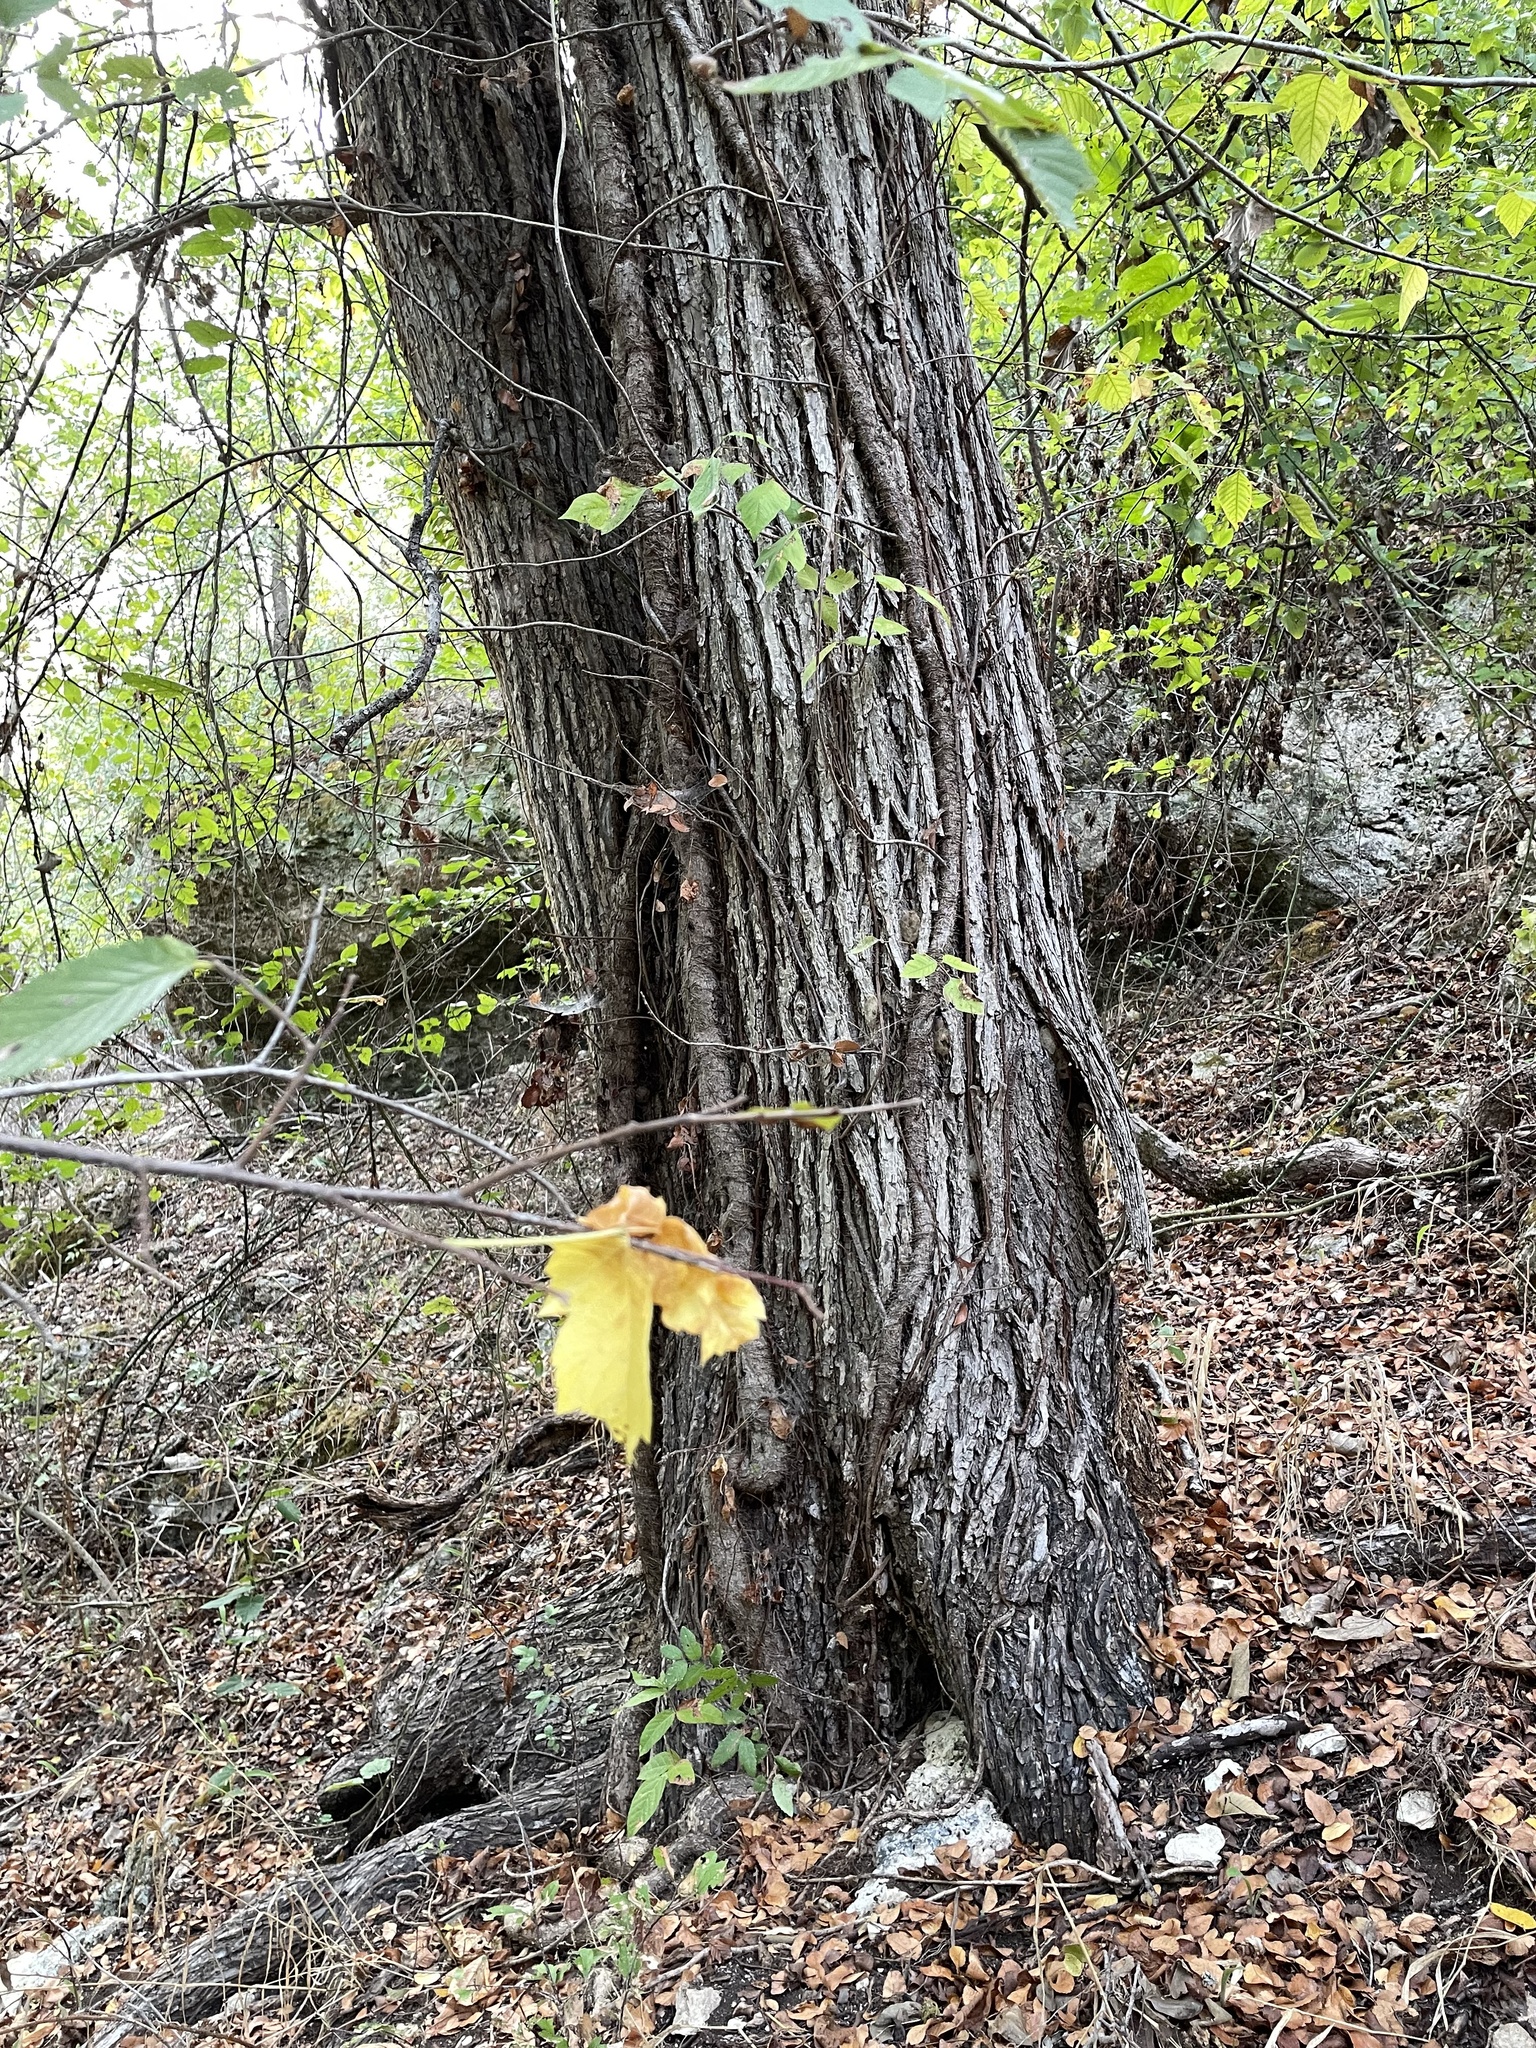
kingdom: Plantae
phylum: Tracheophyta
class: Magnoliopsida
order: Rosales
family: Ulmaceae
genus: Ulmus
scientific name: Ulmus americana
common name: American elm
